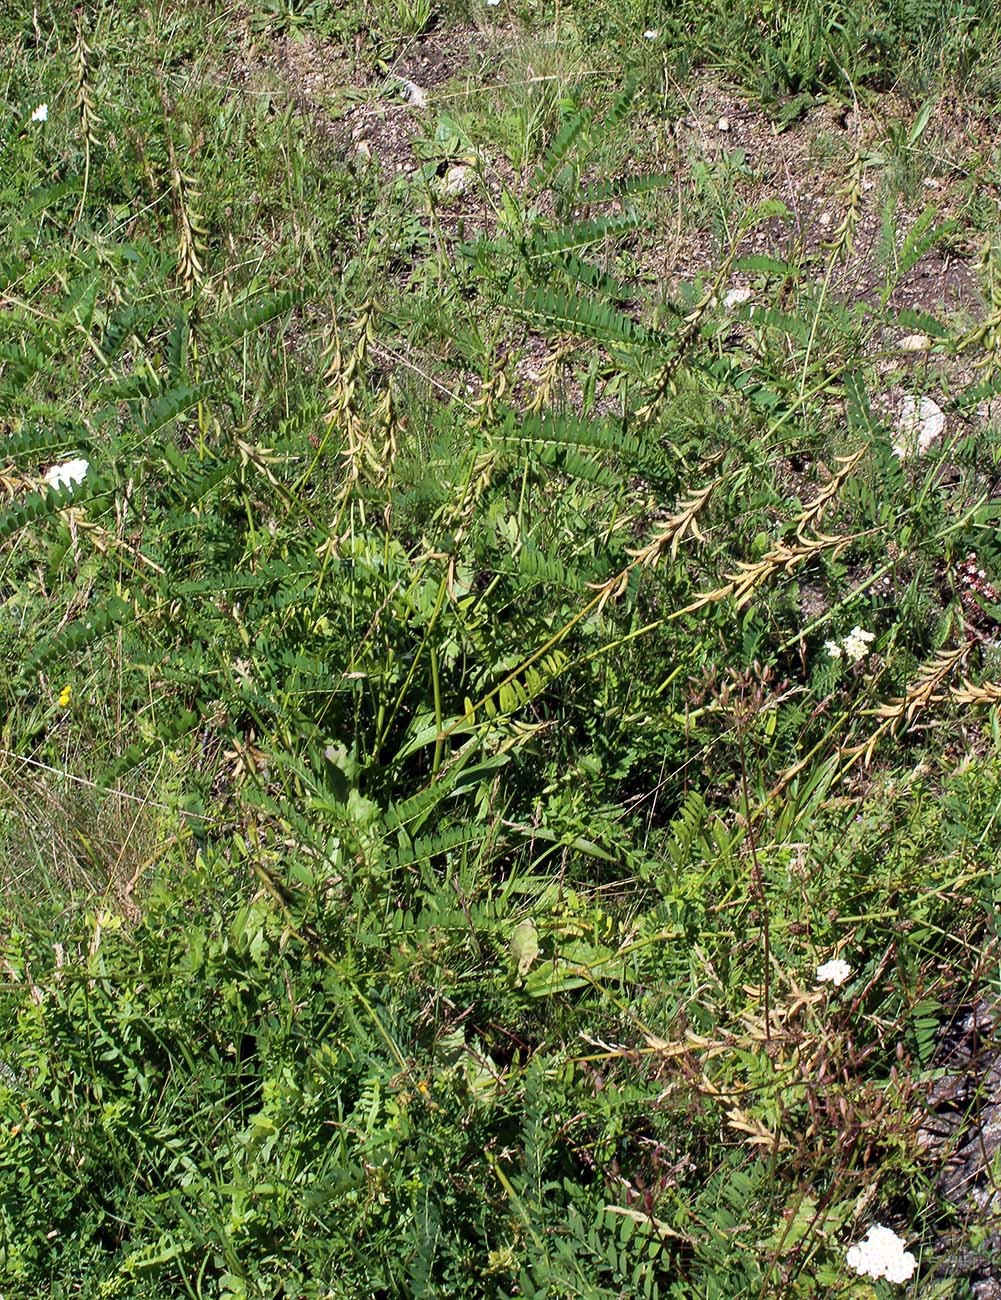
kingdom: Plantae
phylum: Tracheophyta
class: Magnoliopsida
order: Fabales
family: Fabaceae
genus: Astragalus
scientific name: Astragalus falcatus
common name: Russian sickle milk-vetch
